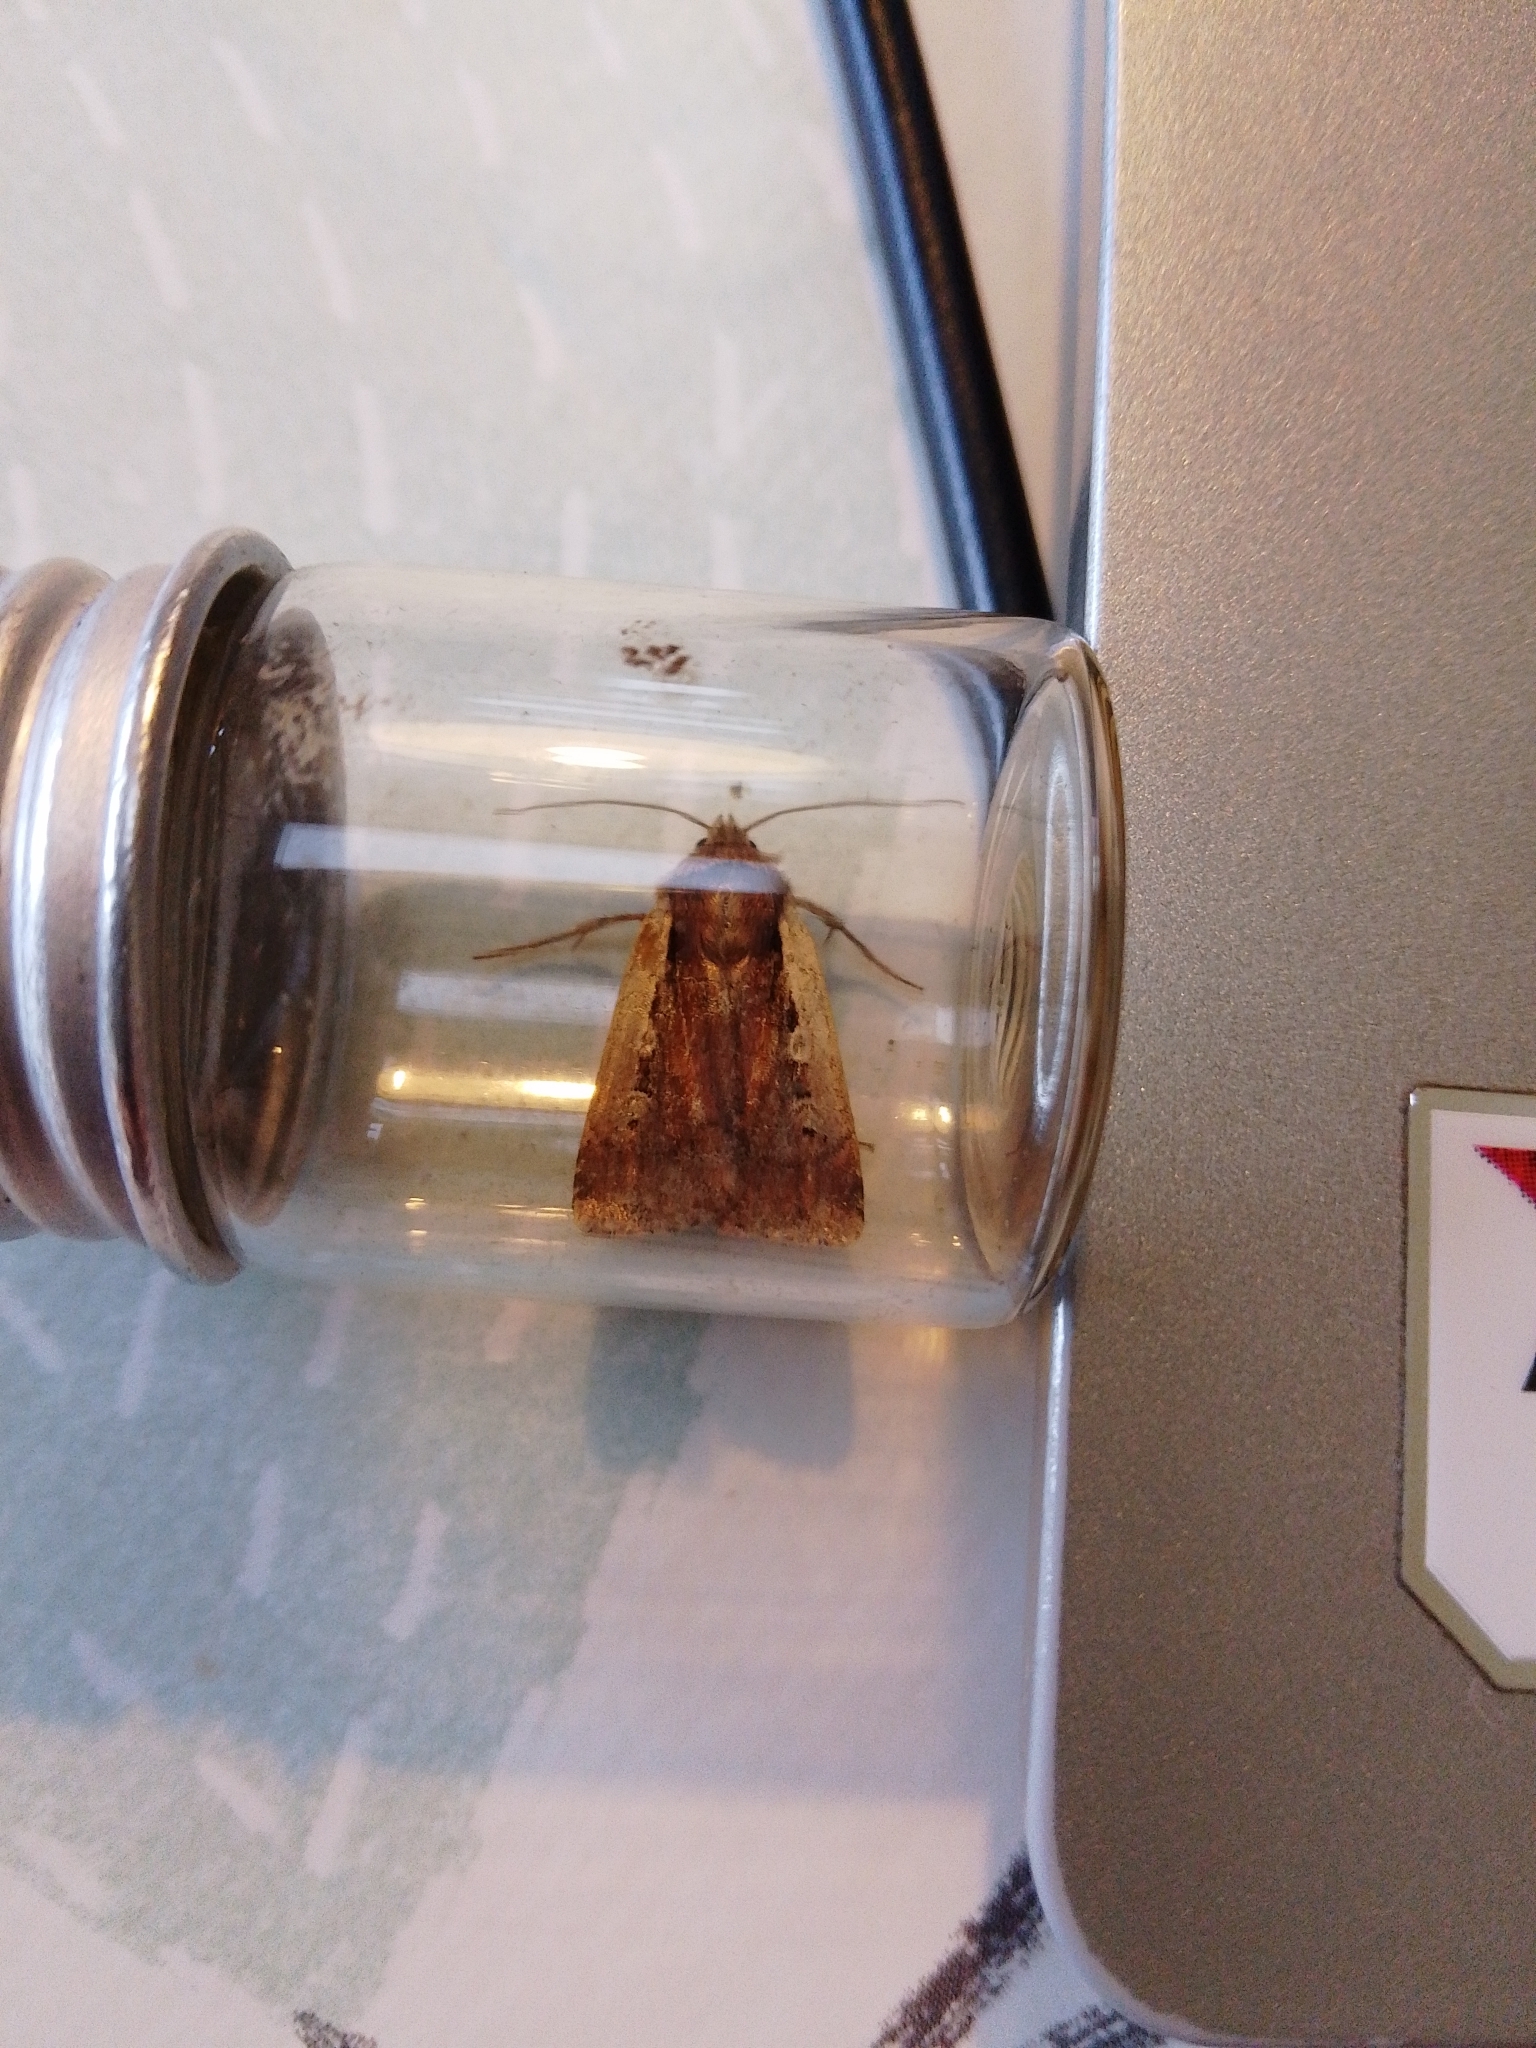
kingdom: Animalia
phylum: Arthropoda
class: Insecta
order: Lepidoptera
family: Noctuidae
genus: Ochropleura
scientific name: Ochropleura plecta
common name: Flame shoulder
